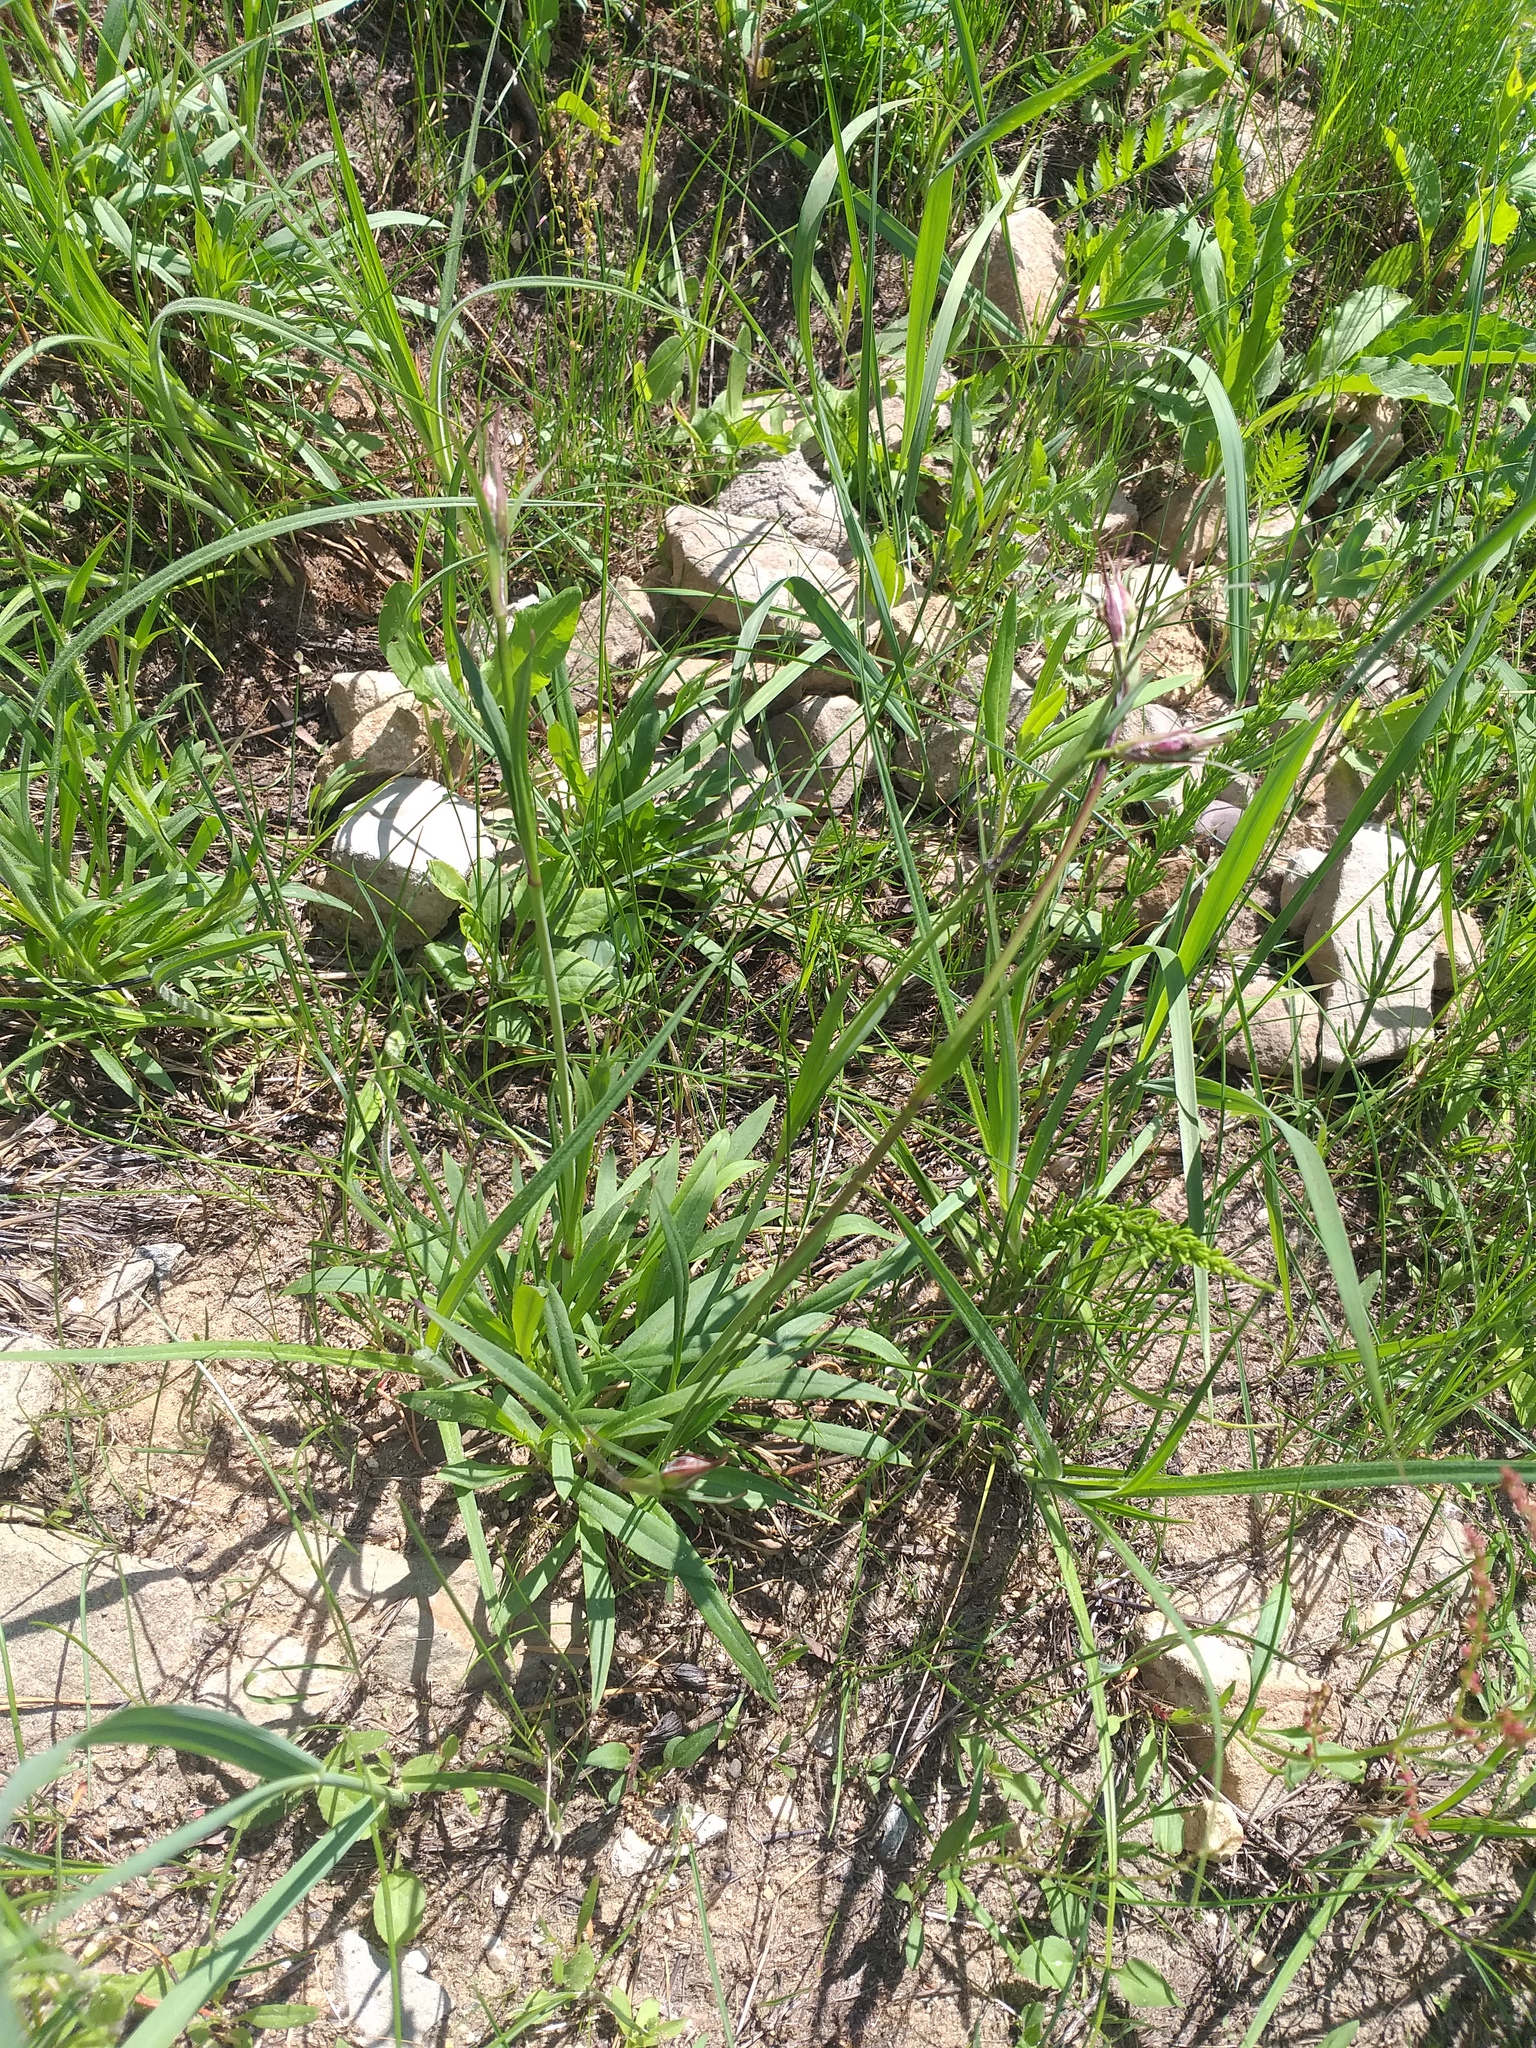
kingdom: Plantae
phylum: Tracheophyta
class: Magnoliopsida
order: Caryophyllales
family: Caryophyllaceae
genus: Viscaria
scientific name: Viscaria vulgaris
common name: Clammy campion
